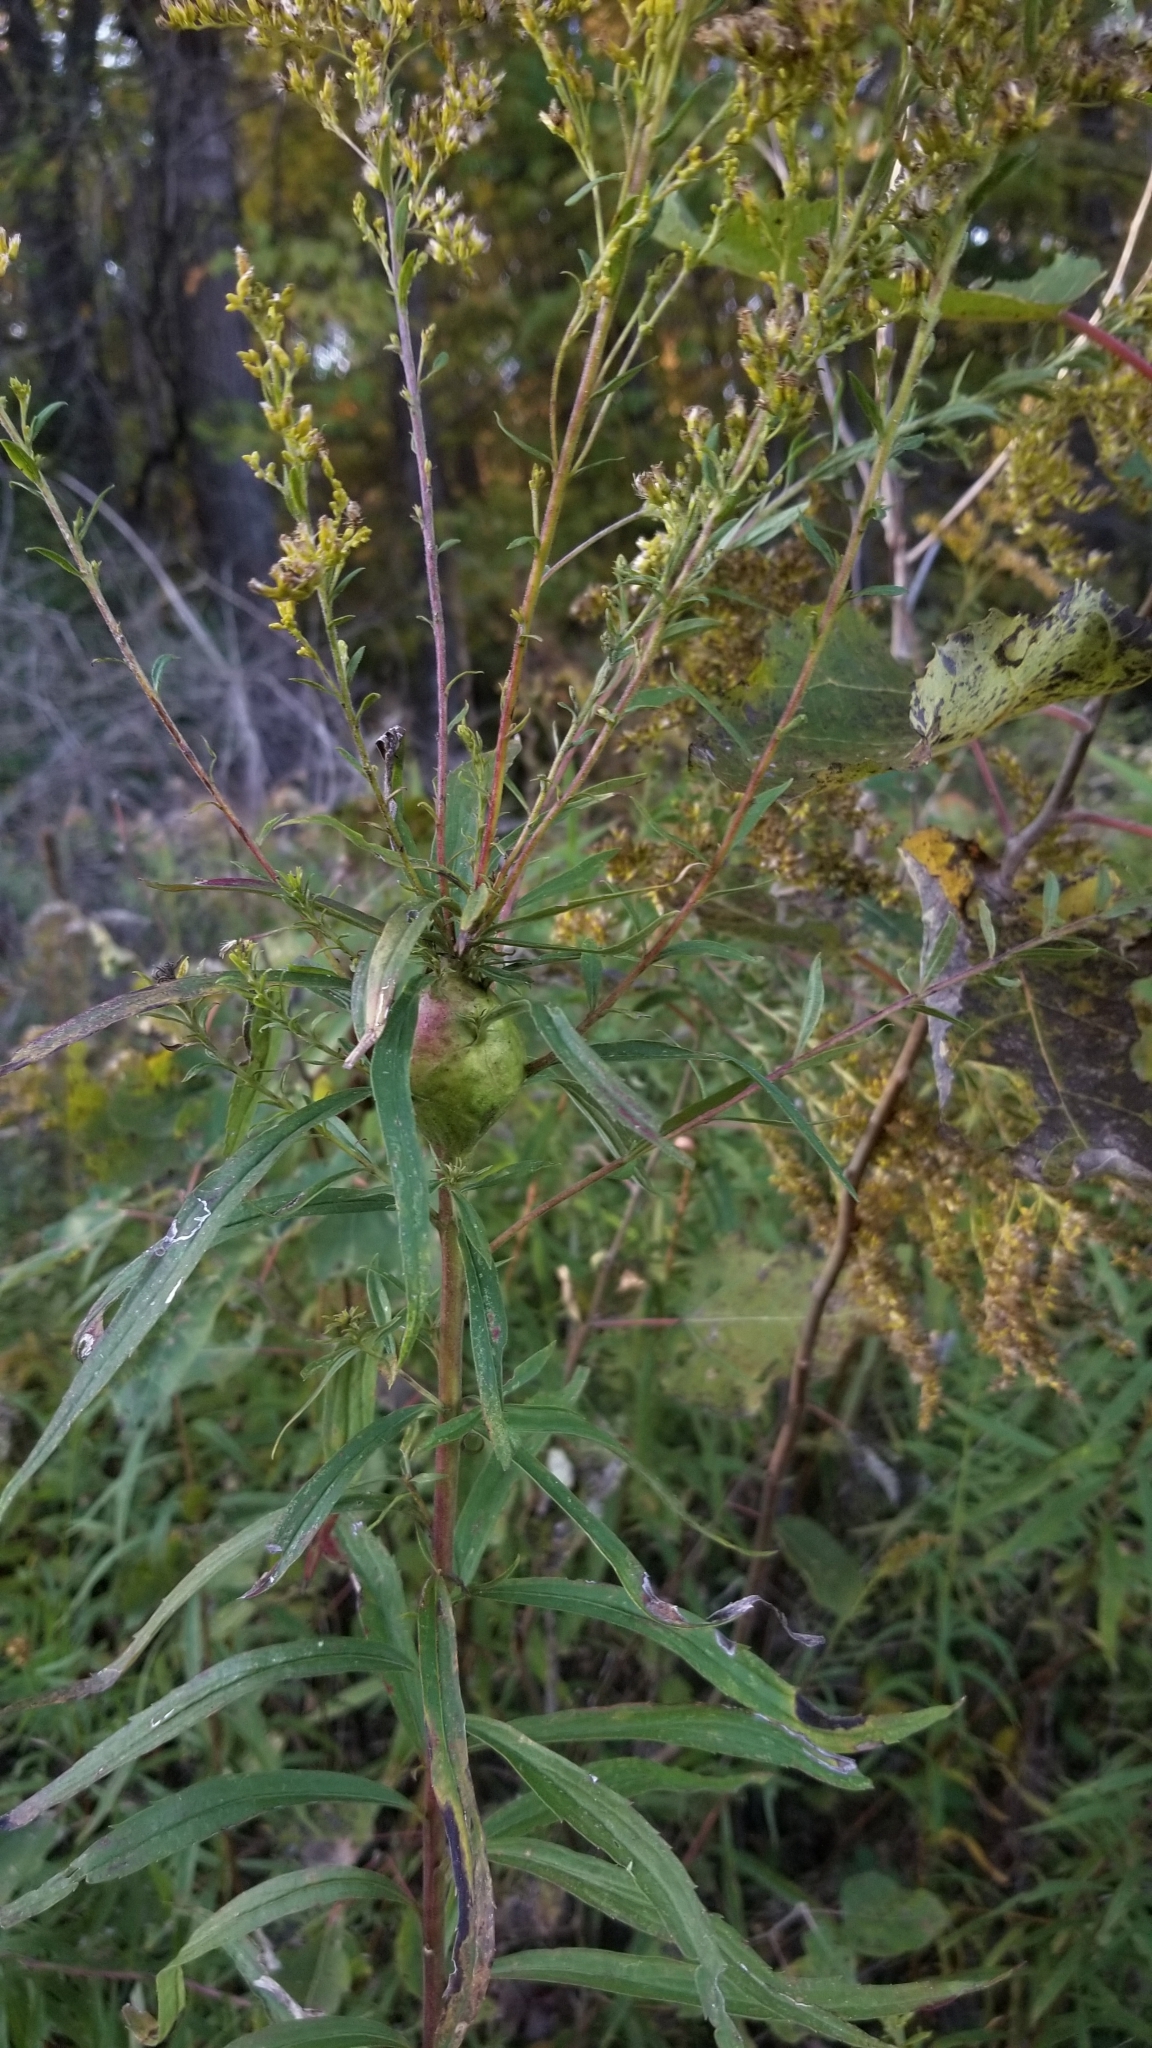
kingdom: Animalia
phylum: Arthropoda
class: Insecta
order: Diptera
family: Tephritidae
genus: Eurosta
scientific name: Eurosta solidaginis
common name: Goldenrod gall fly
